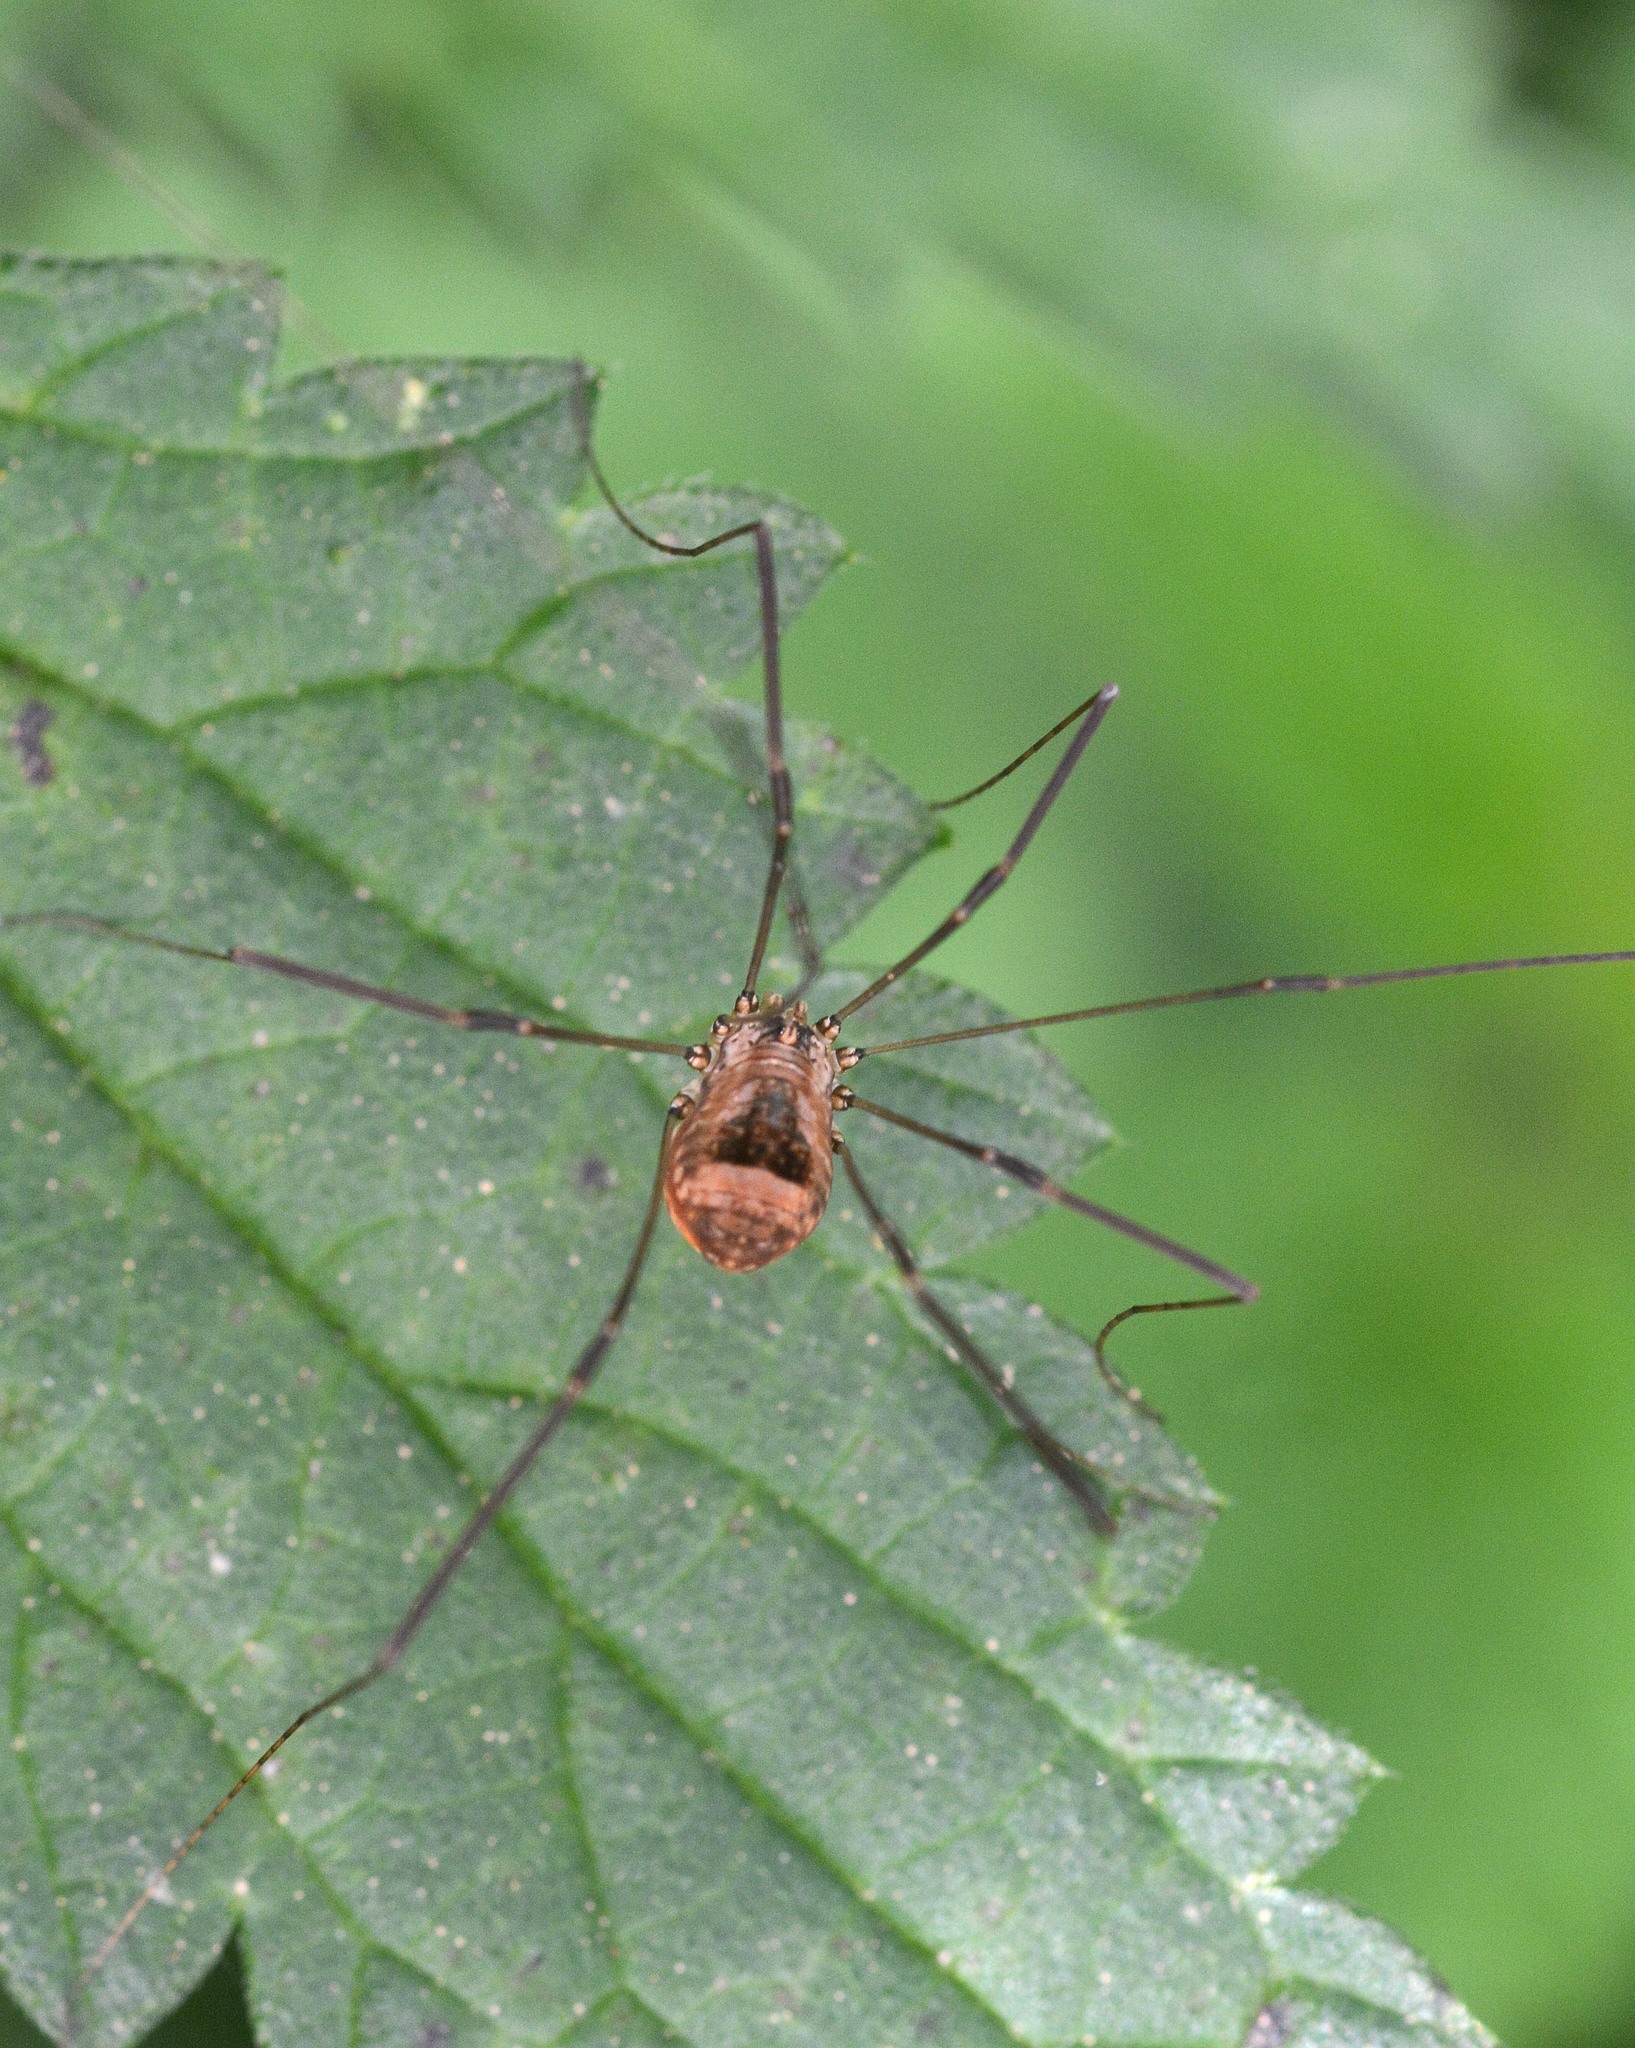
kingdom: Animalia
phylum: Arthropoda
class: Arachnida
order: Opiliones
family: Sclerosomatidae
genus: Leiobunum
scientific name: Leiobunum blackwalli
